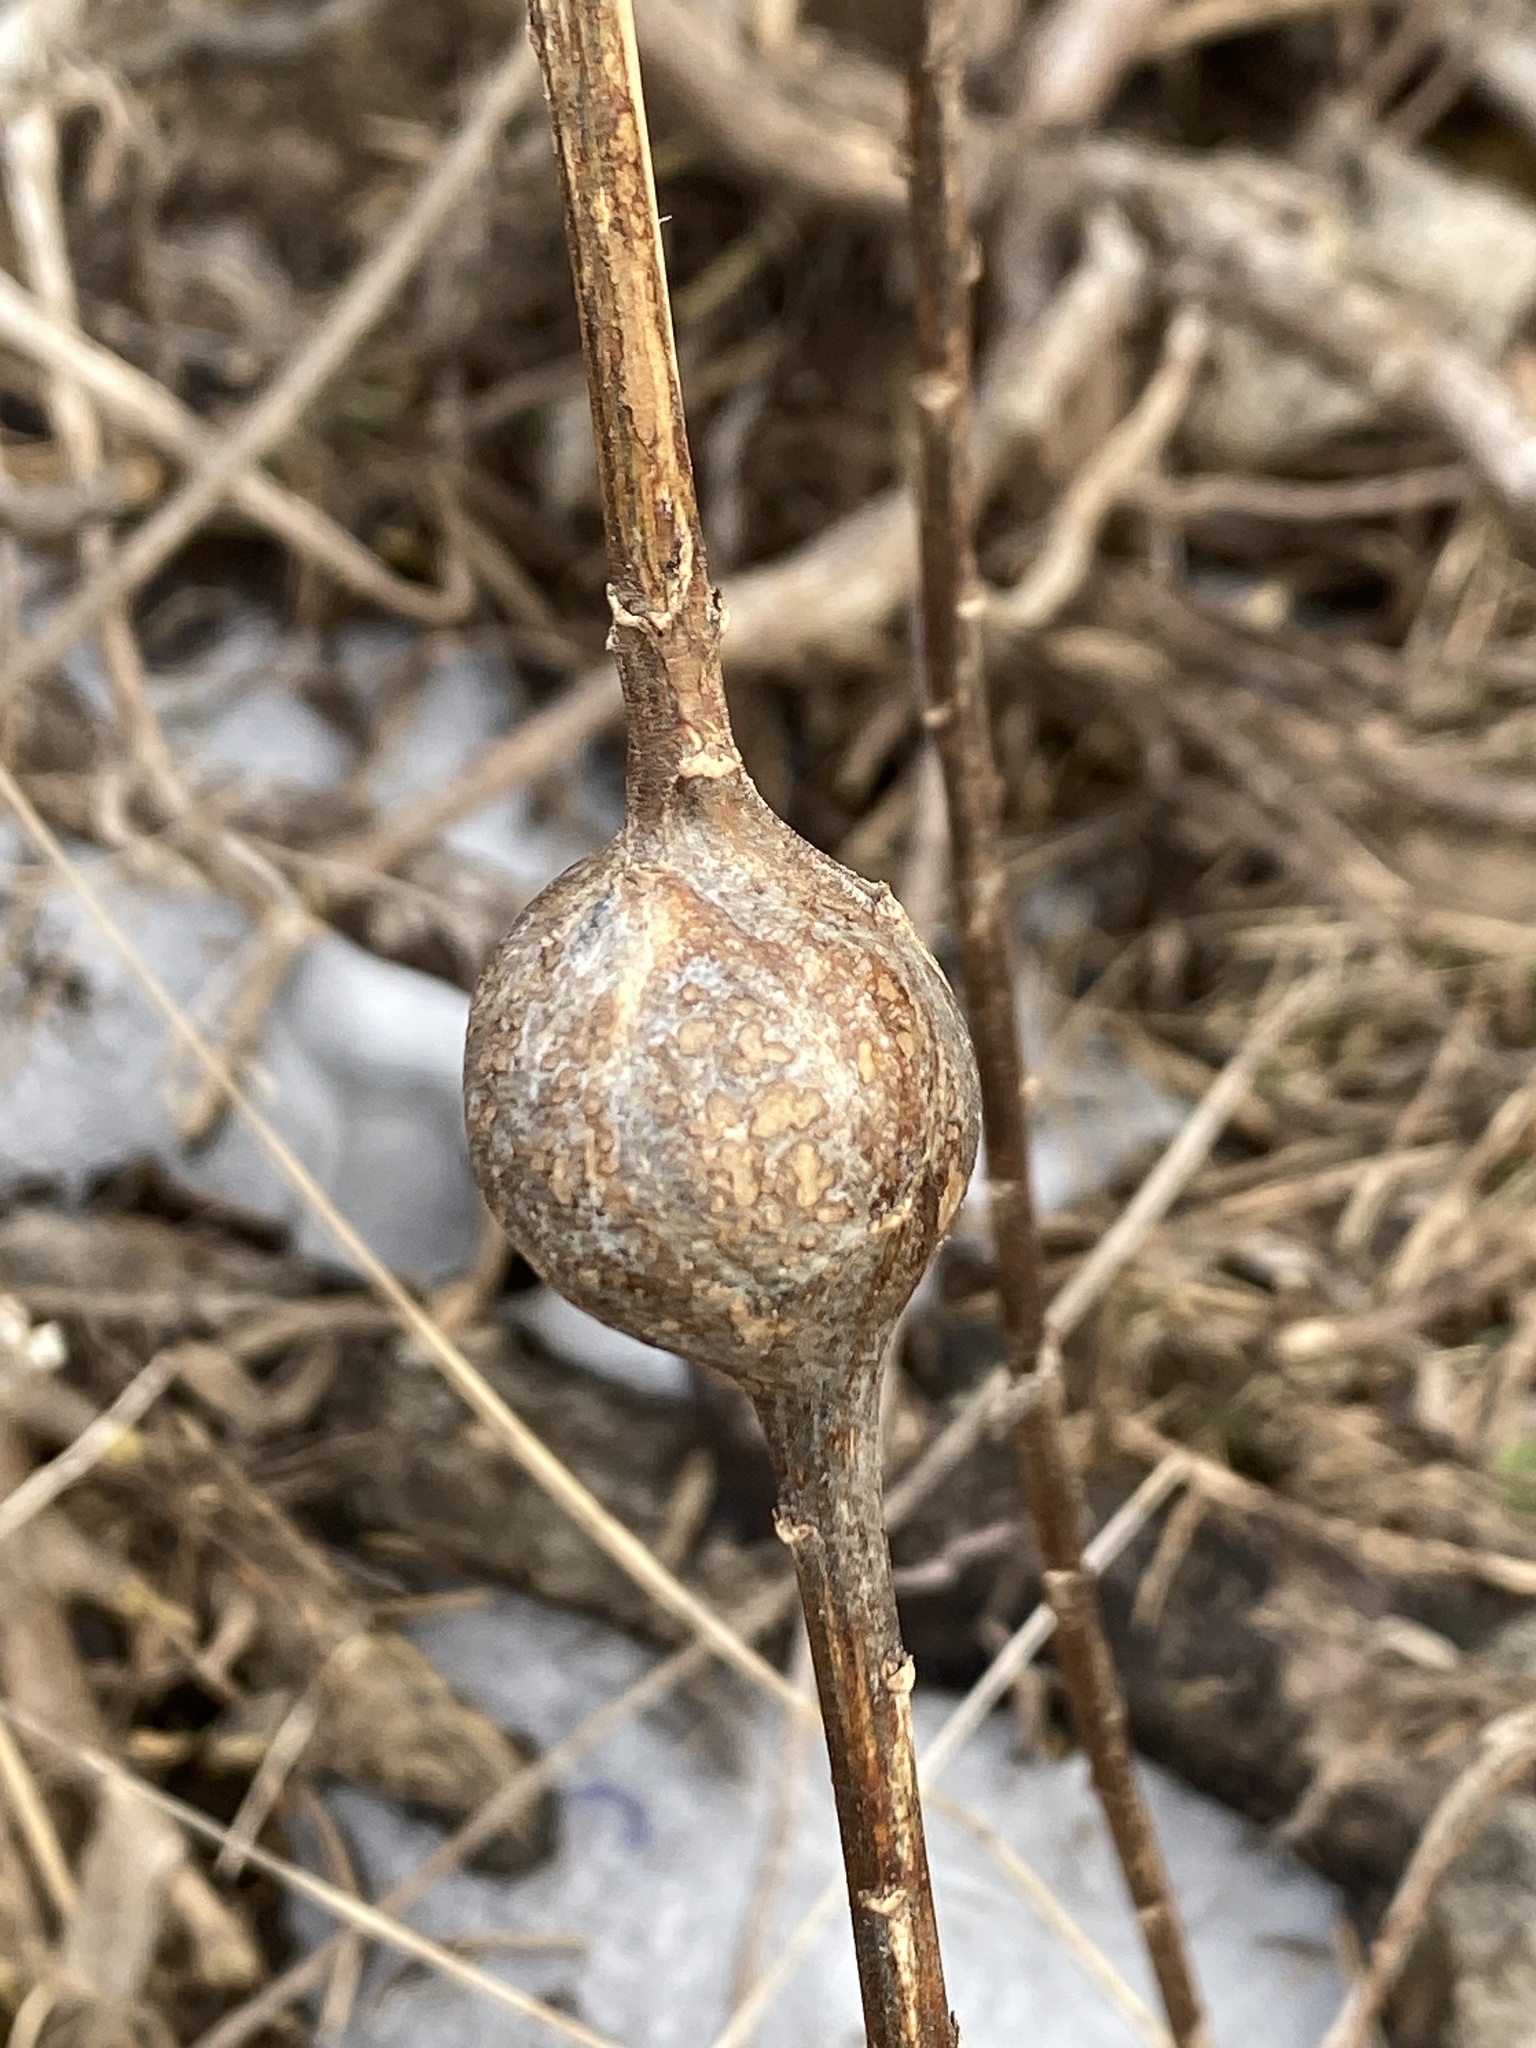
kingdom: Animalia
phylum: Arthropoda
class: Insecta
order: Diptera
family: Tephritidae
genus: Eurosta
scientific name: Eurosta solidaginis
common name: Goldenrod gall fly
